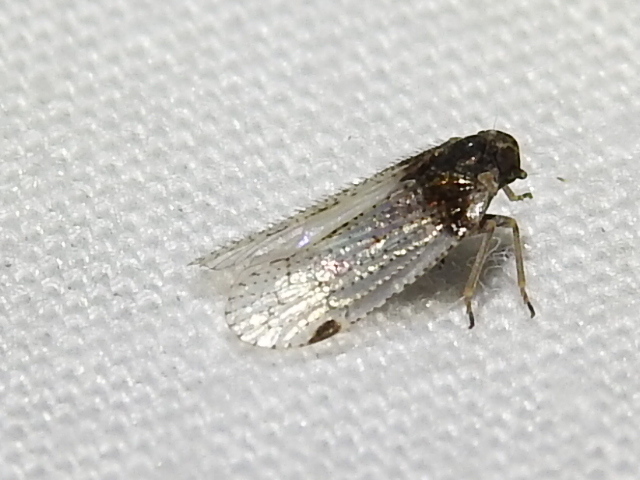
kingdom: Animalia
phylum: Arthropoda
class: Insecta
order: Hemiptera
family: Cixiidae
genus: Cixius
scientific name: Cixius stigmatus
